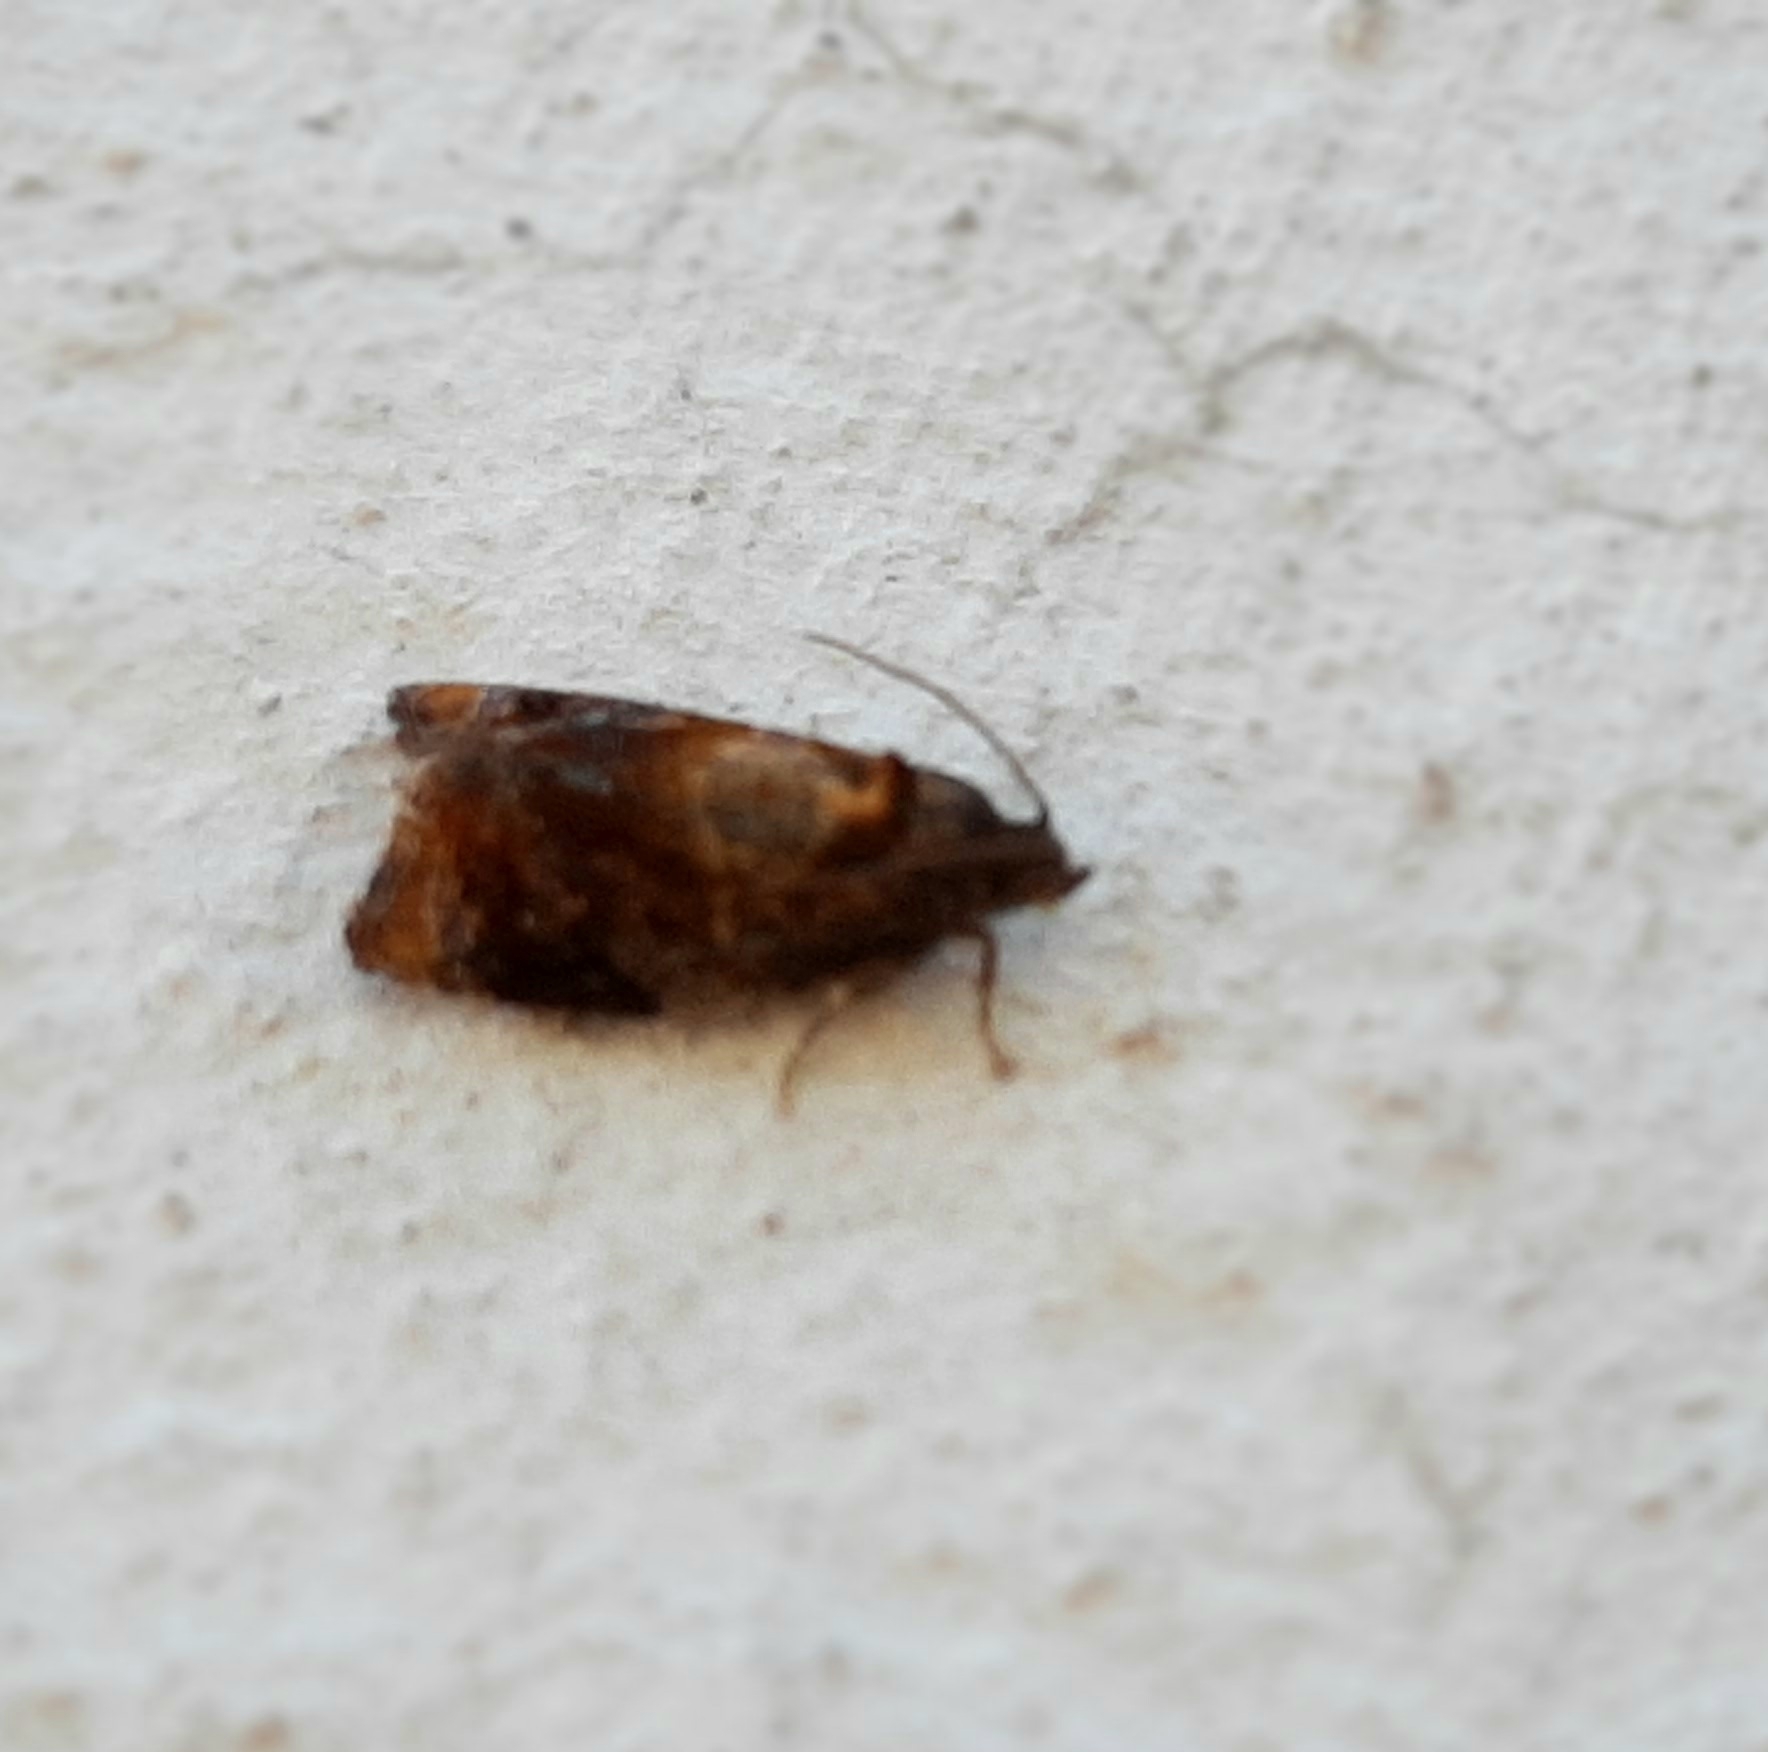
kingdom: Animalia
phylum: Arthropoda
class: Insecta
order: Lepidoptera
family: Tortricidae
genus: Ditula
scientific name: Ditula angustiorana
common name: Red-barred tortrix
